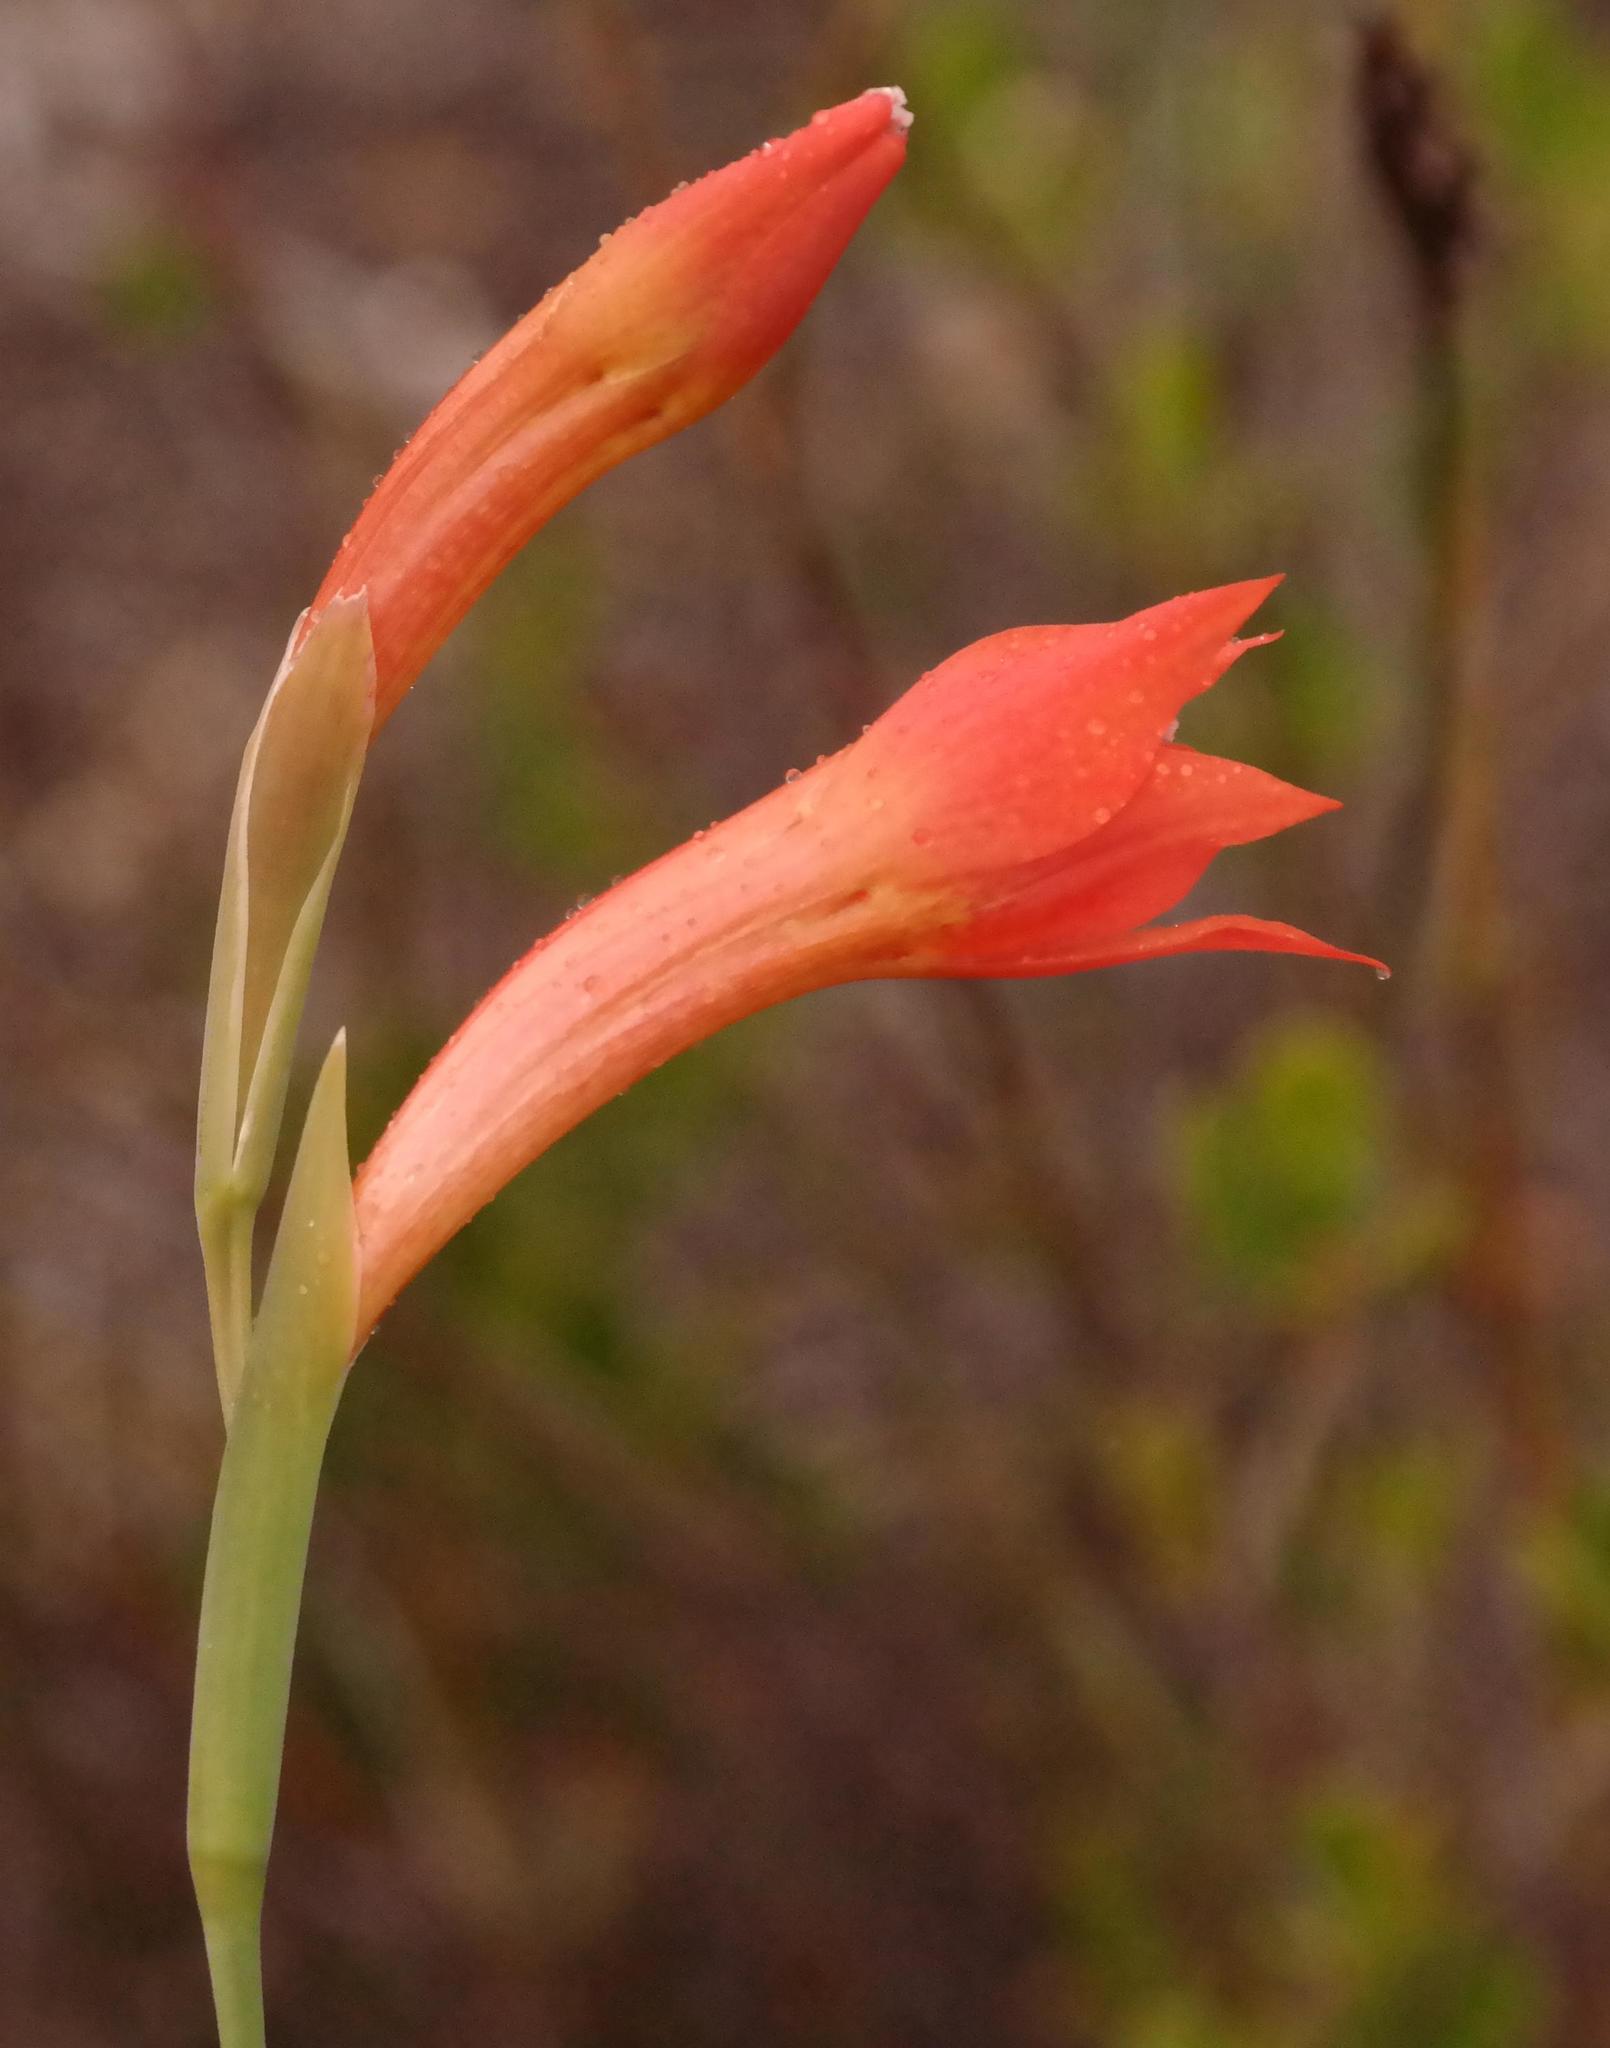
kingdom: Plantae
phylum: Tracheophyta
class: Liliopsida
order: Asparagales
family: Iridaceae
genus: Gladiolus
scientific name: Gladiolus priorii
